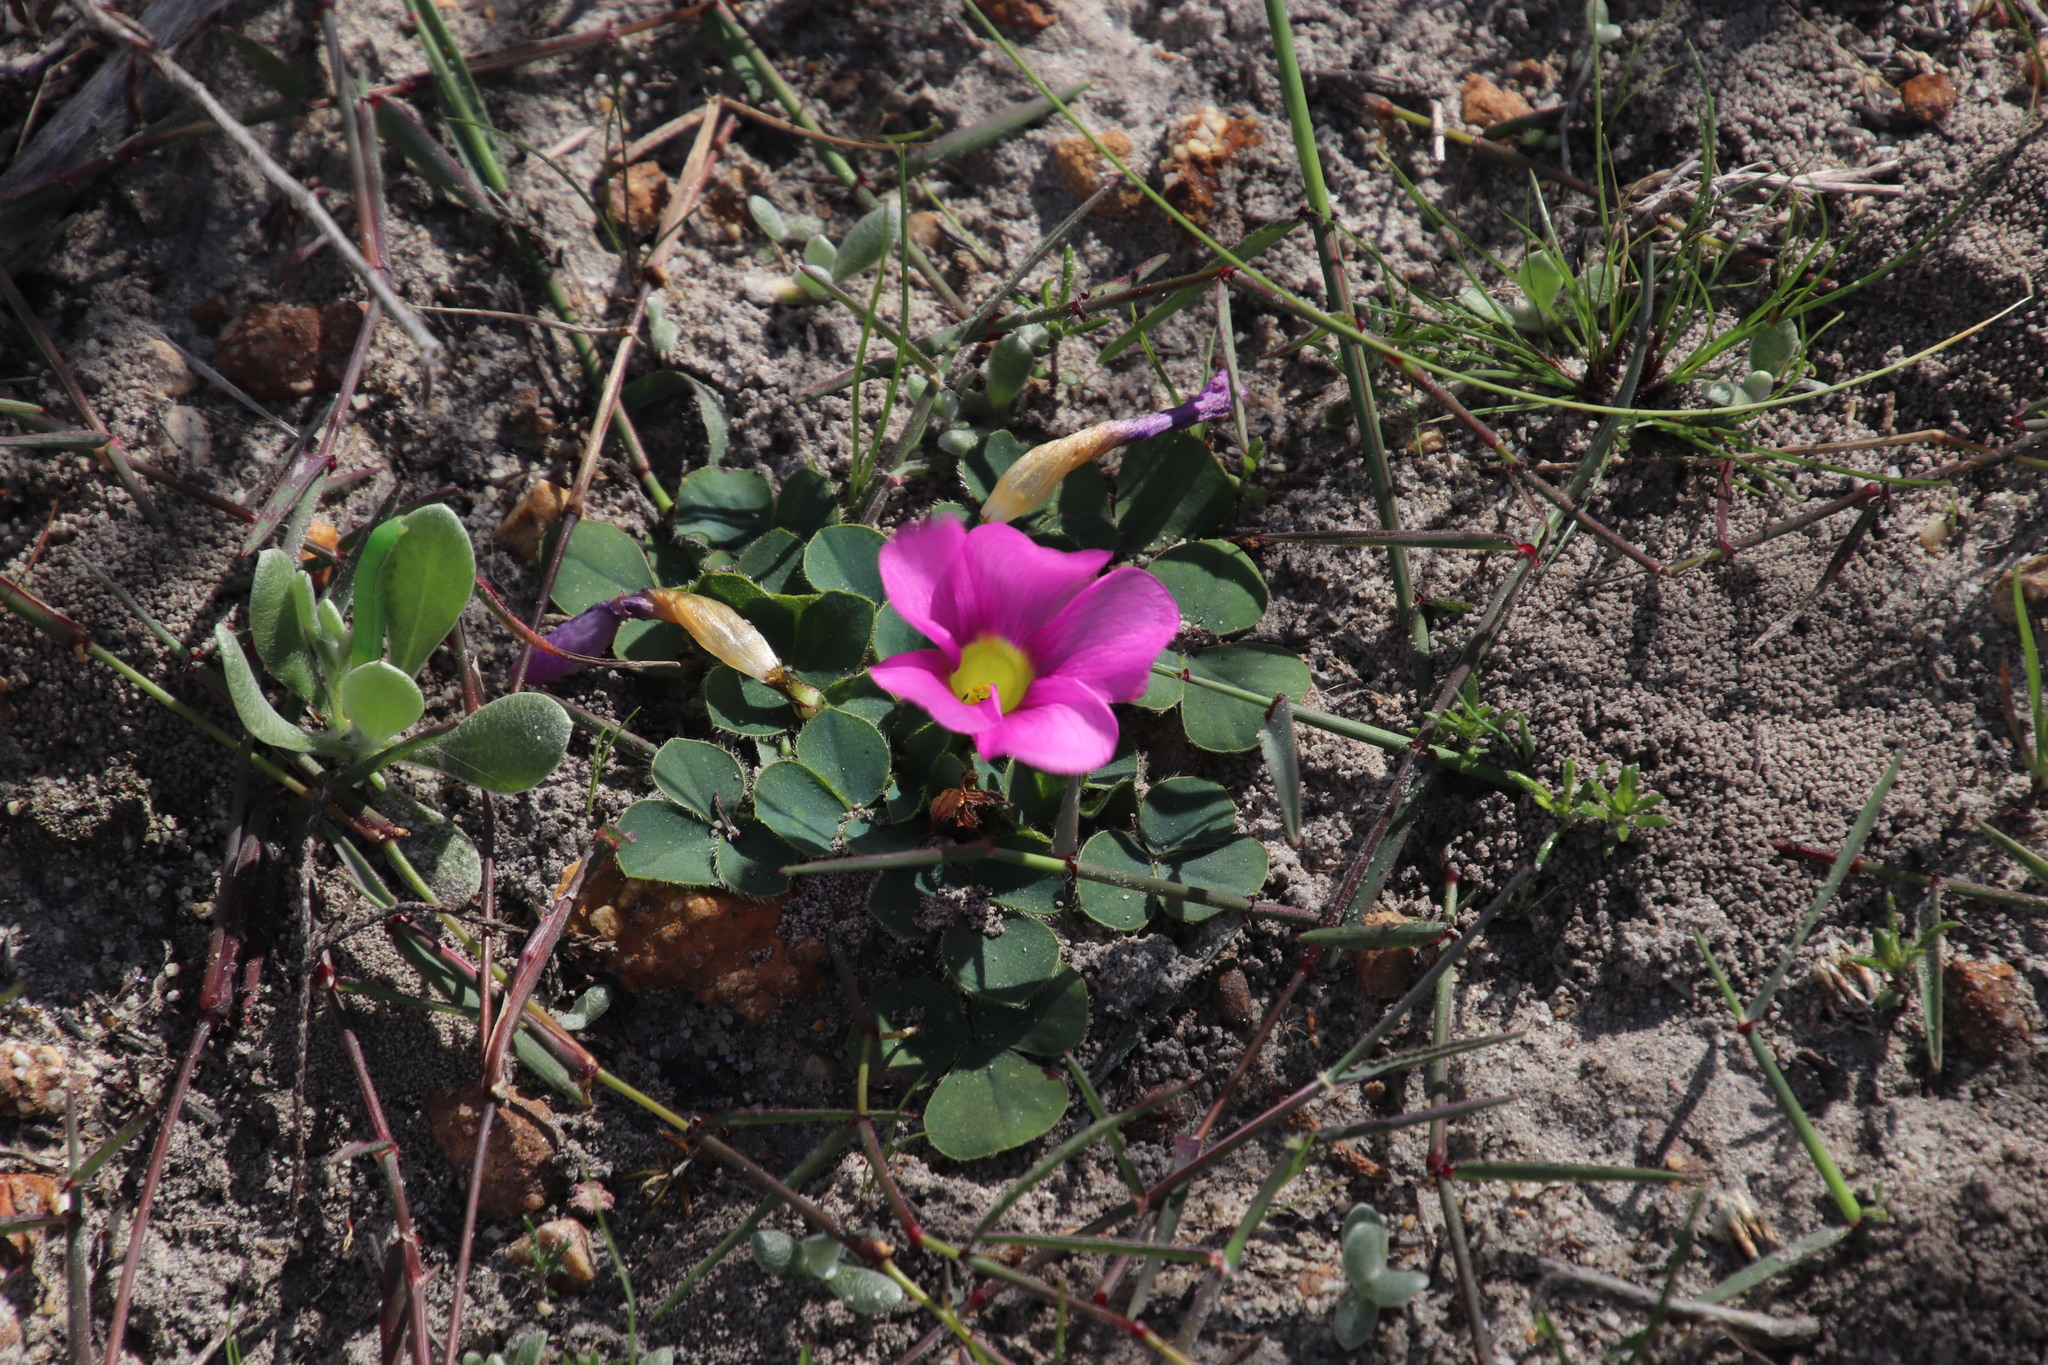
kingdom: Plantae
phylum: Tracheophyta
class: Magnoliopsida
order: Oxalidales
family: Oxalidaceae
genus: Oxalis
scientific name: Oxalis purpurea
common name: Purple woodsorrel
